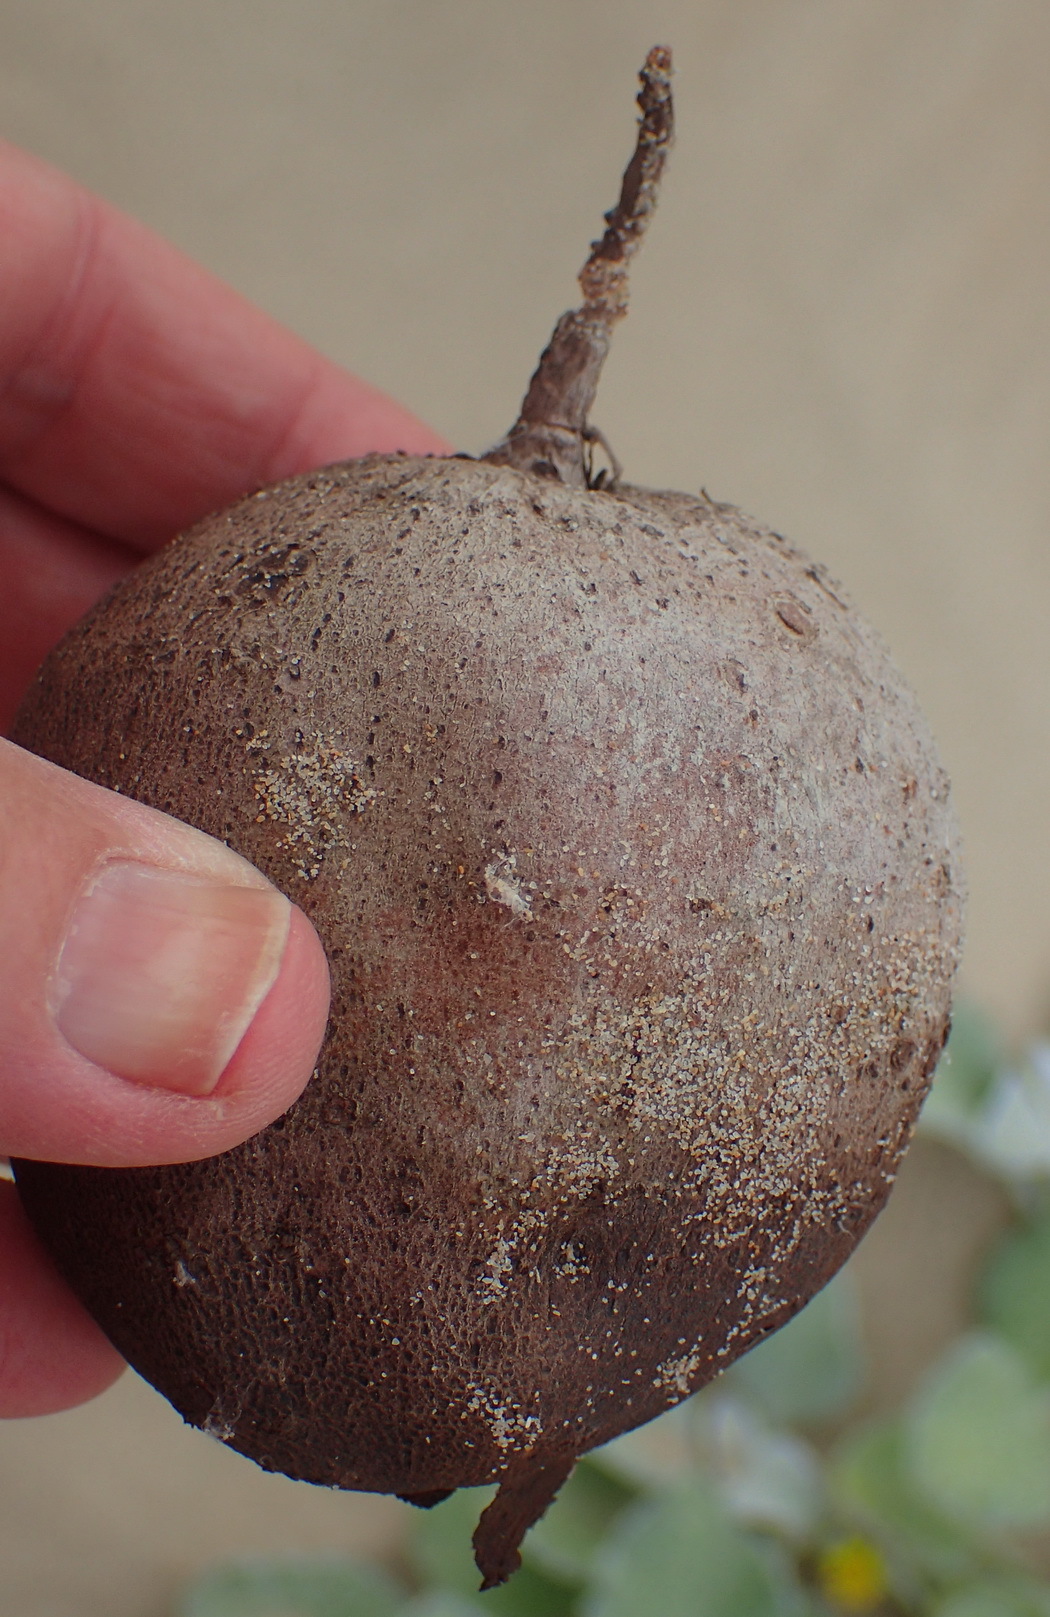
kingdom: Plantae
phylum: Tracheophyta
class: Magnoliopsida
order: Vitales
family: Vitaceae
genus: Rhoicissus
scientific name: Rhoicissus digitata
